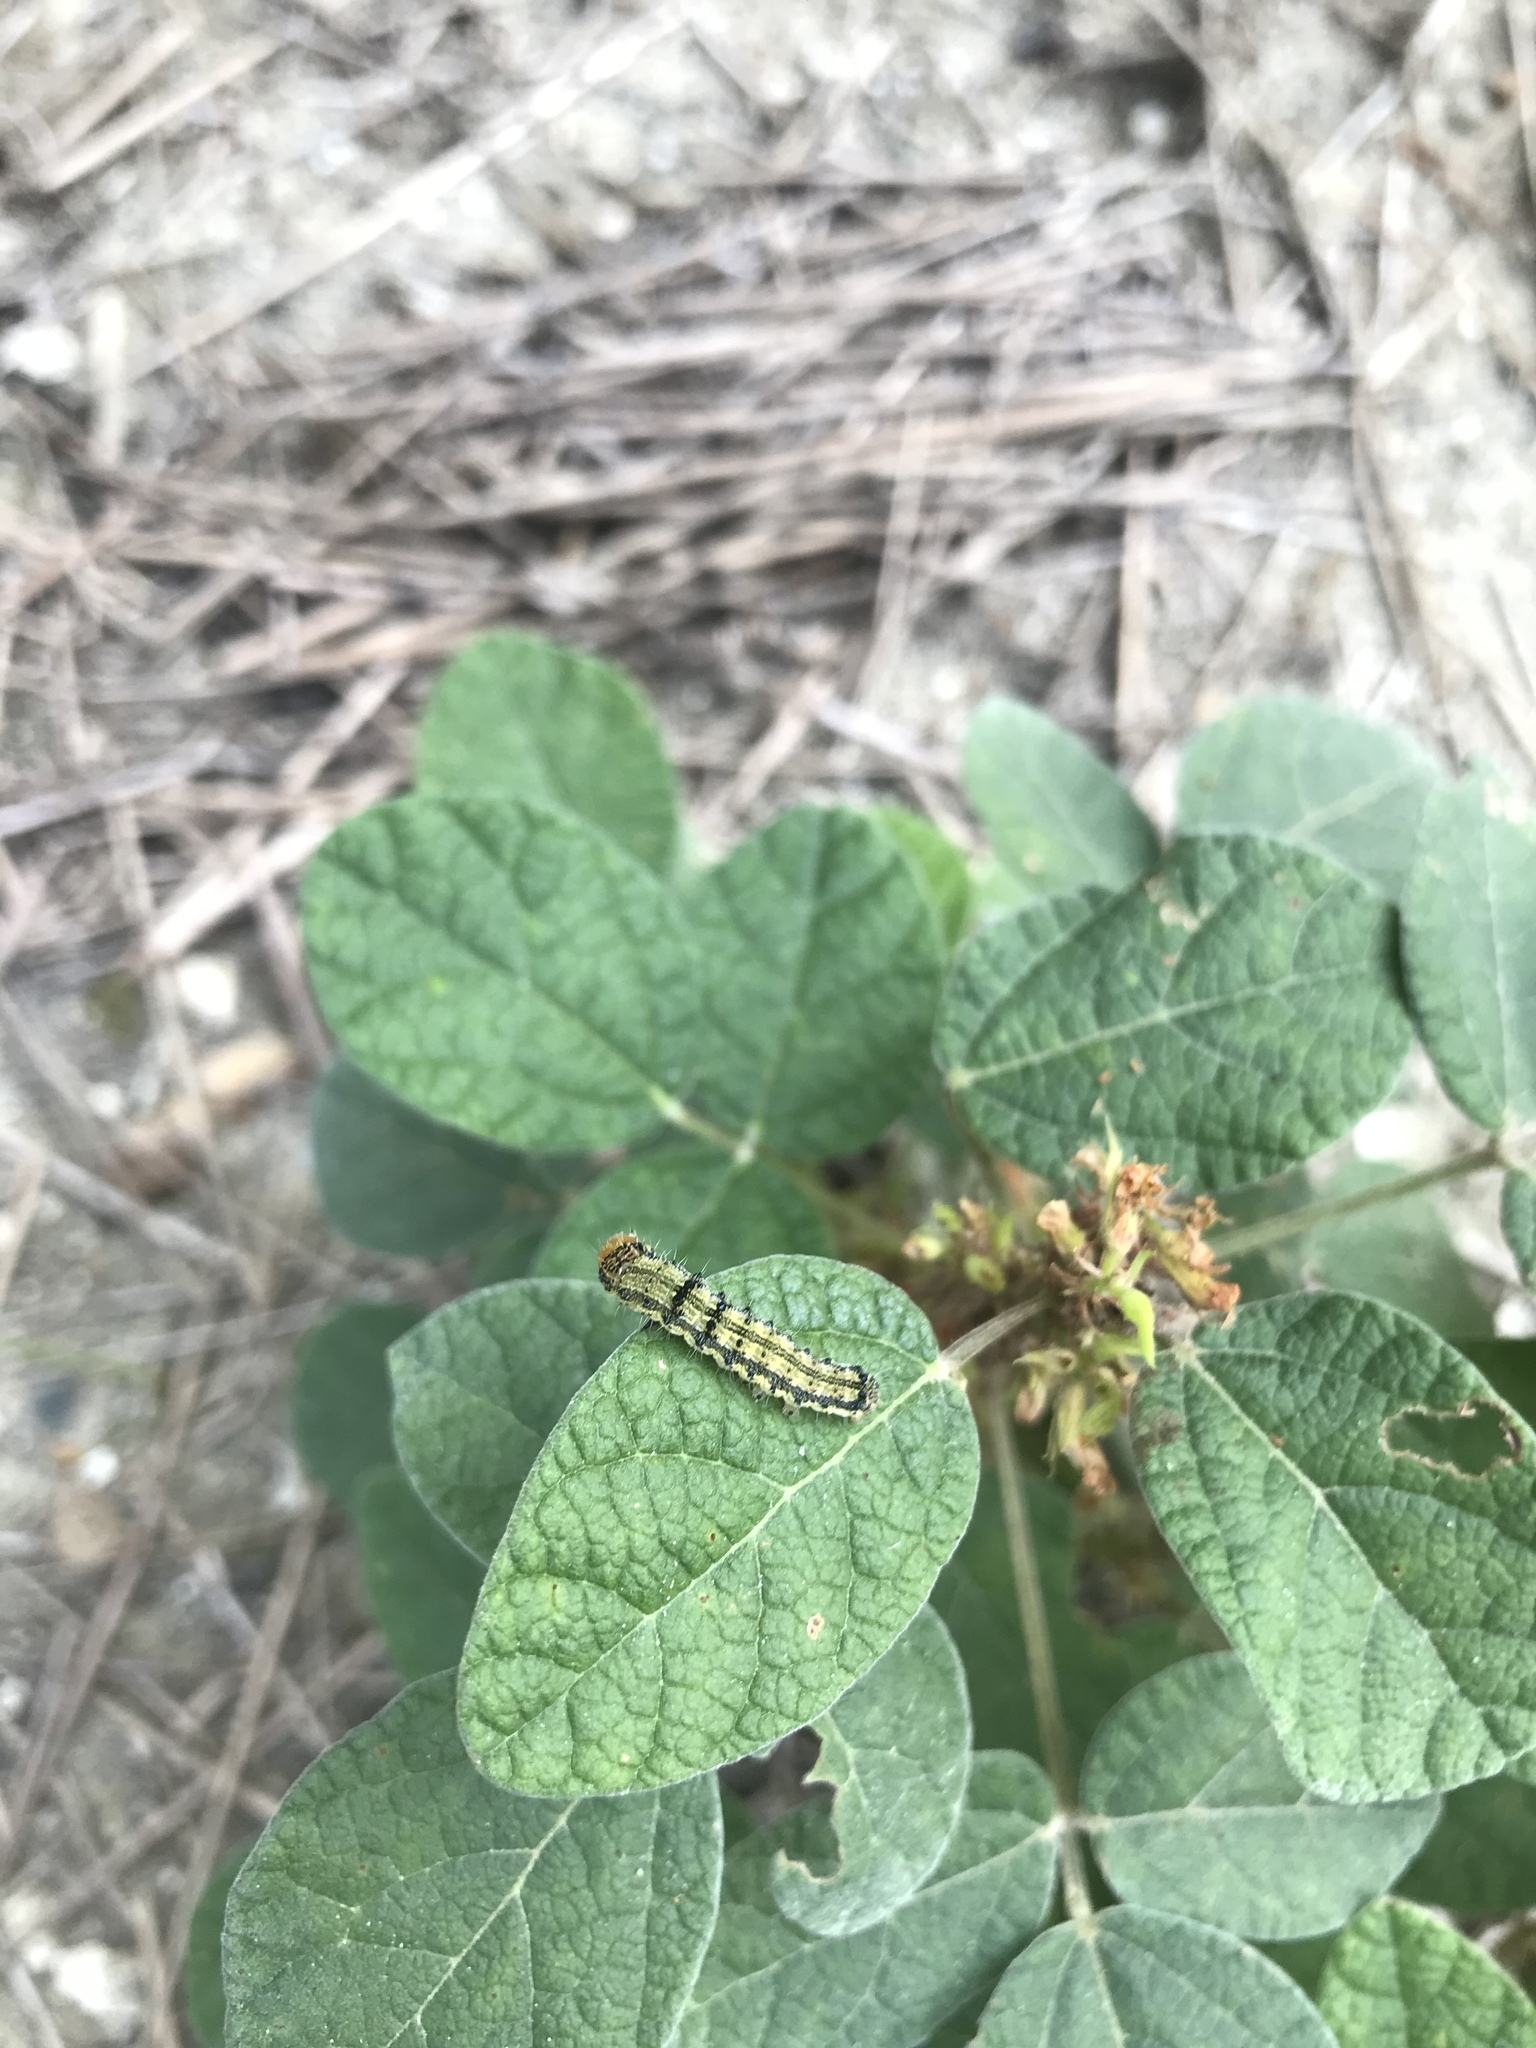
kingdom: Animalia
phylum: Arthropoda
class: Insecta
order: Lepidoptera
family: Noctuidae
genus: Chloridea
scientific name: Chloridea virescens
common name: Tobacco budworm
